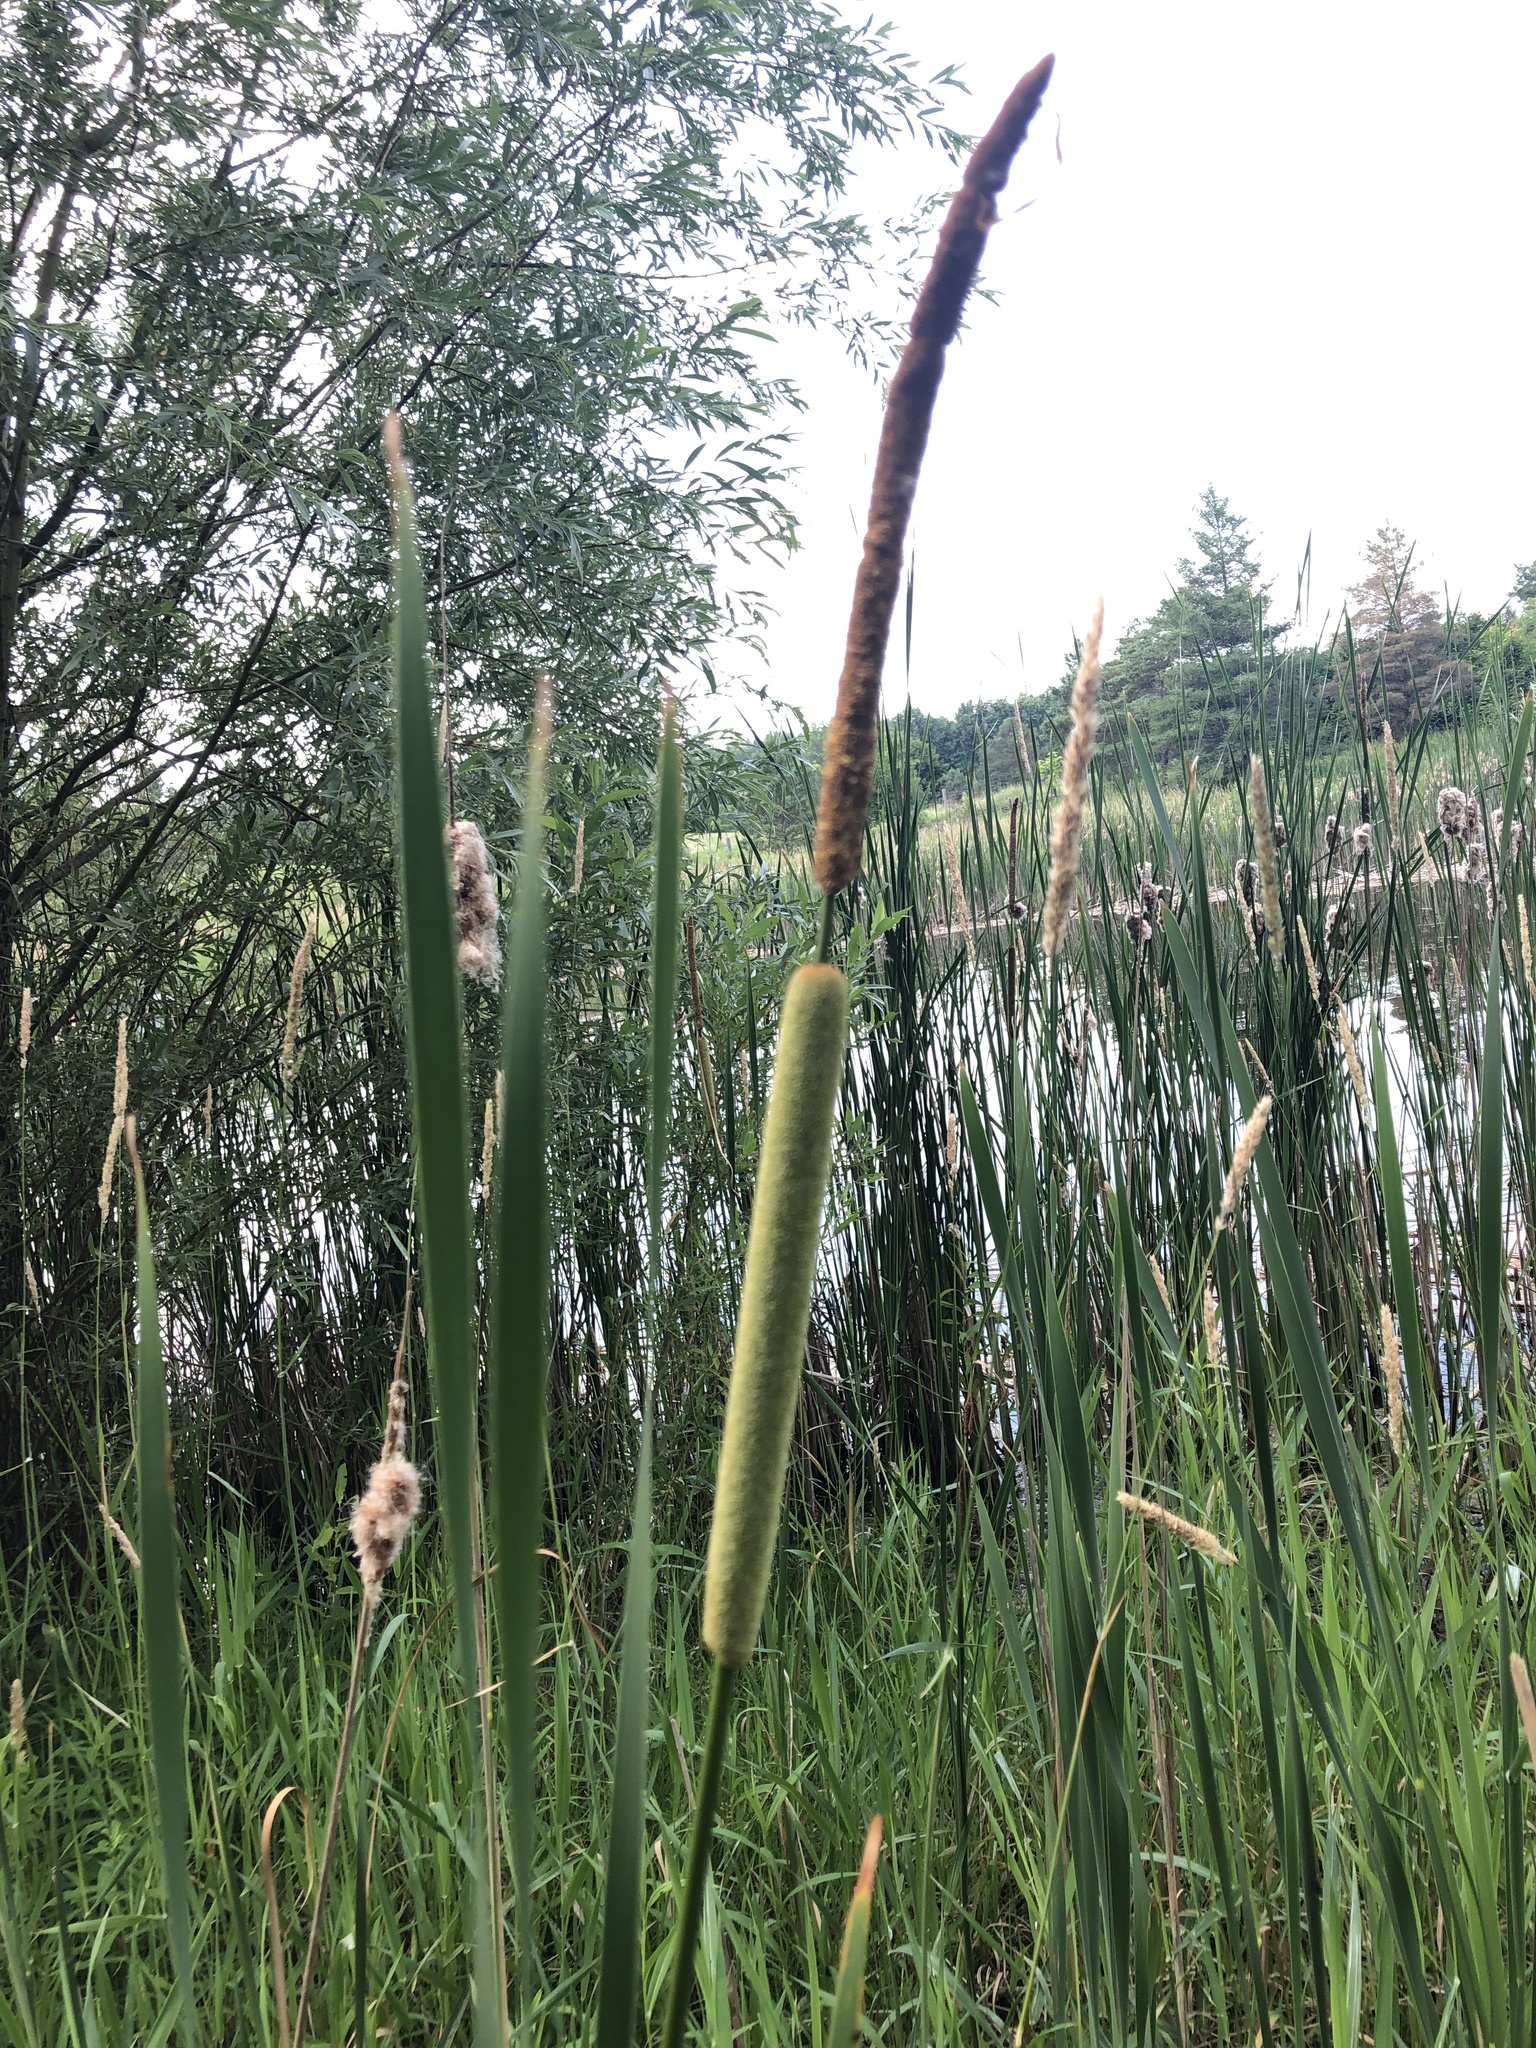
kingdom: Plantae
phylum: Tracheophyta
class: Liliopsida
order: Poales
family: Typhaceae
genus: Typha
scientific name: Typha angustifolia
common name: Lesser bulrush
